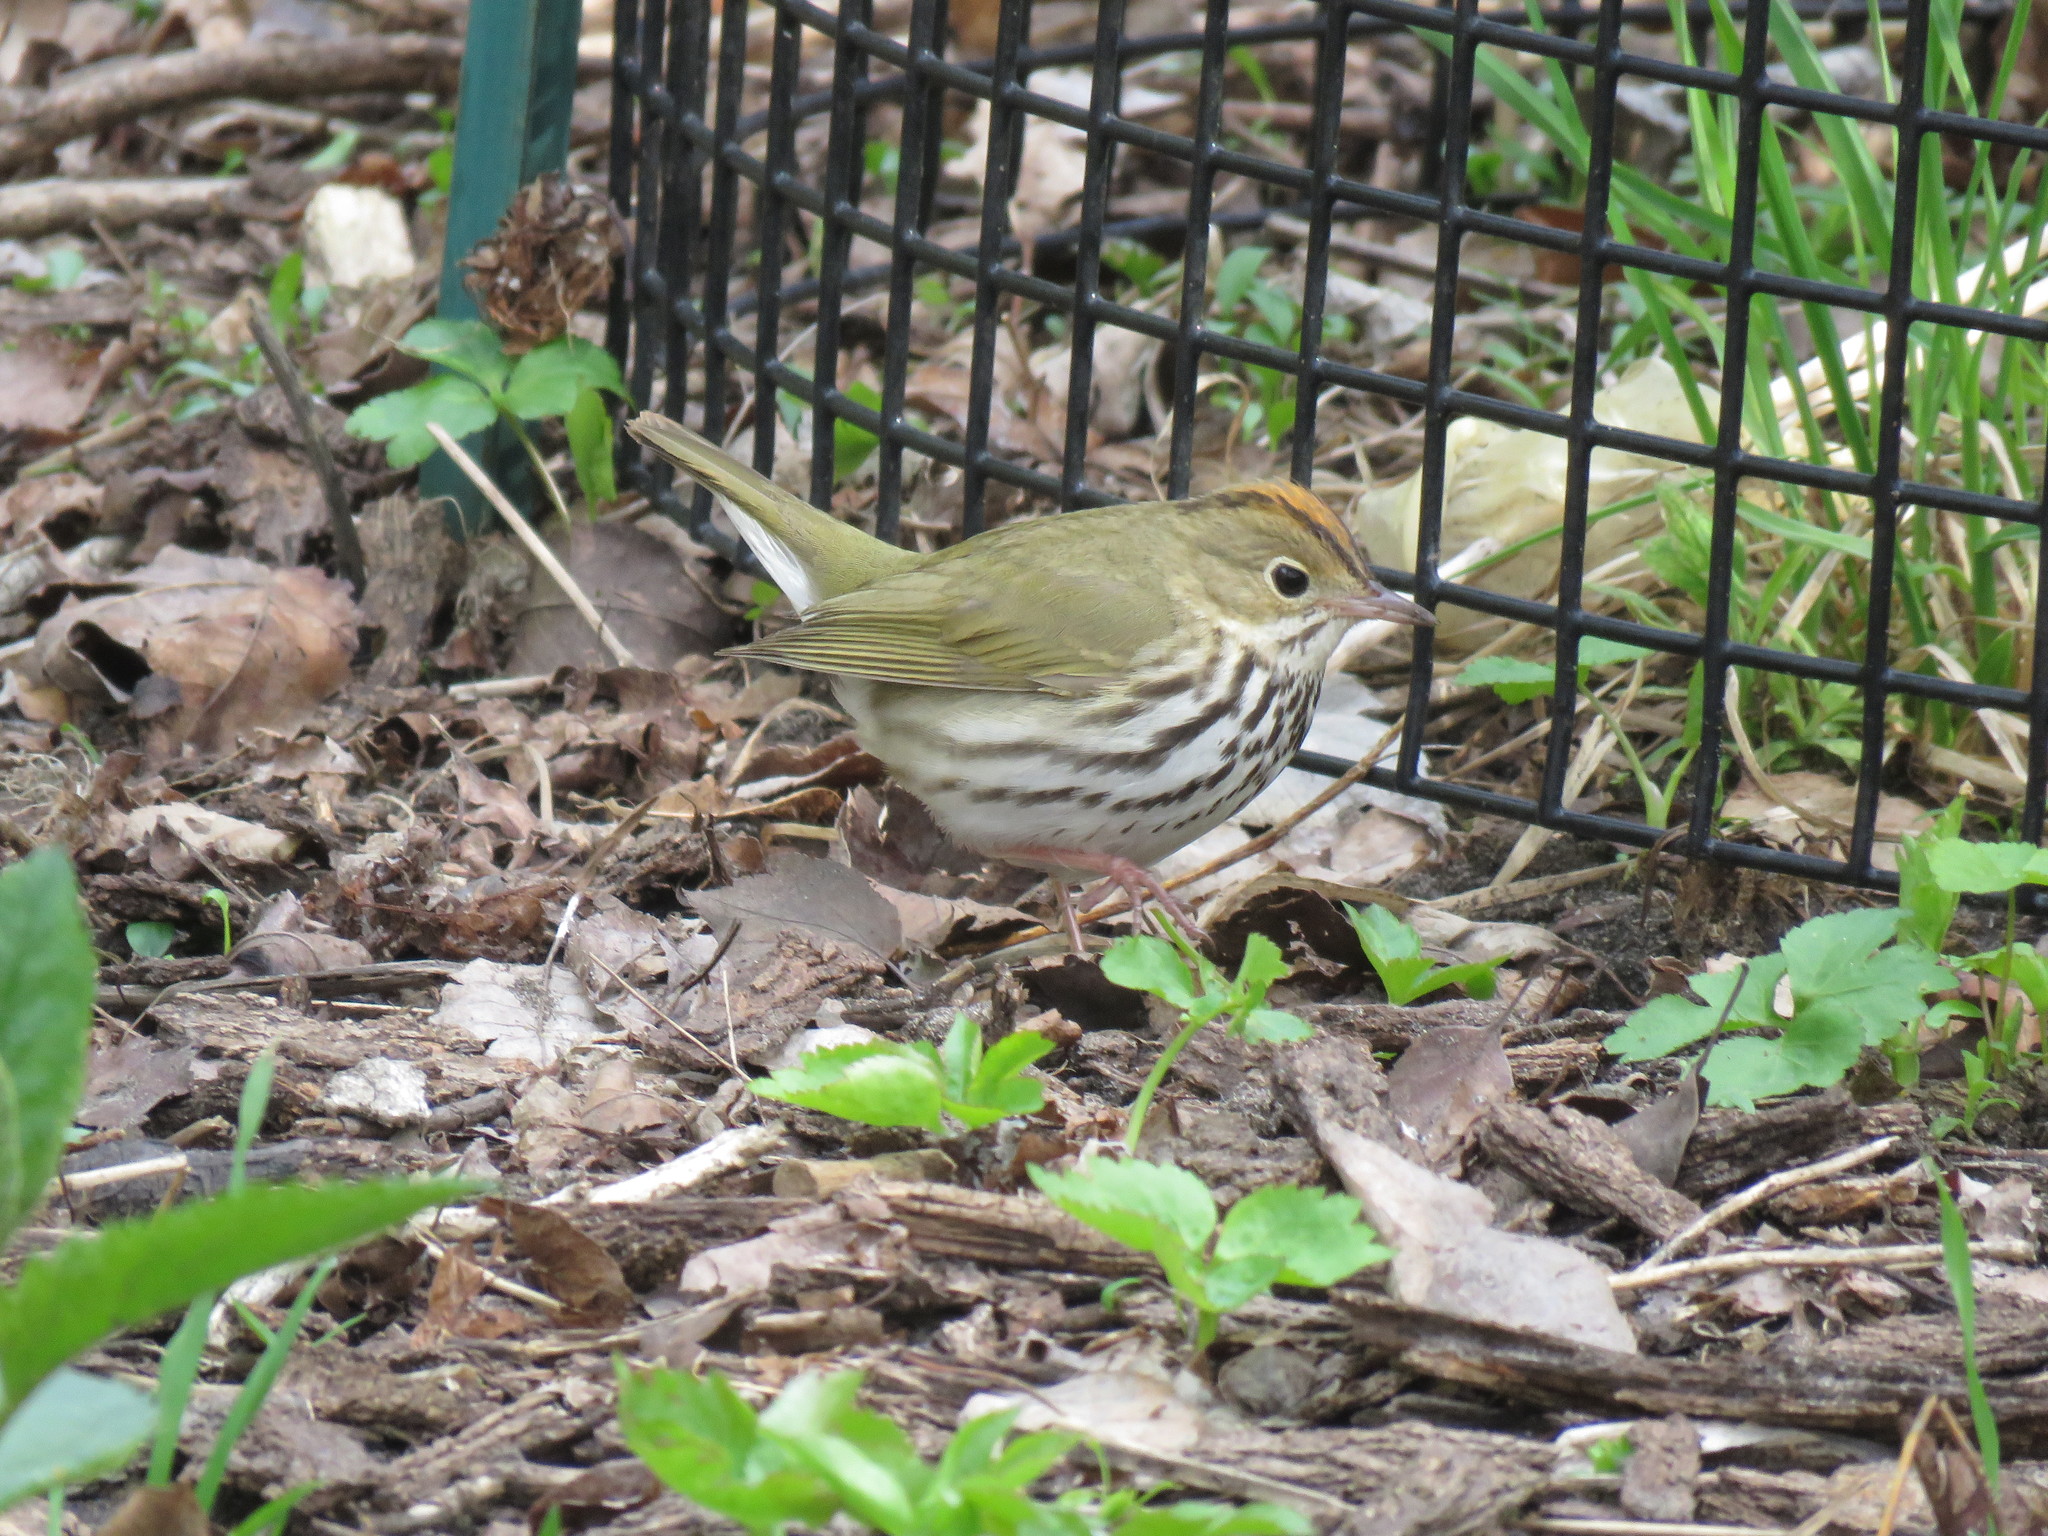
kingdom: Animalia
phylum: Chordata
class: Aves
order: Passeriformes
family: Parulidae
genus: Seiurus
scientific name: Seiurus aurocapilla
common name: Ovenbird
